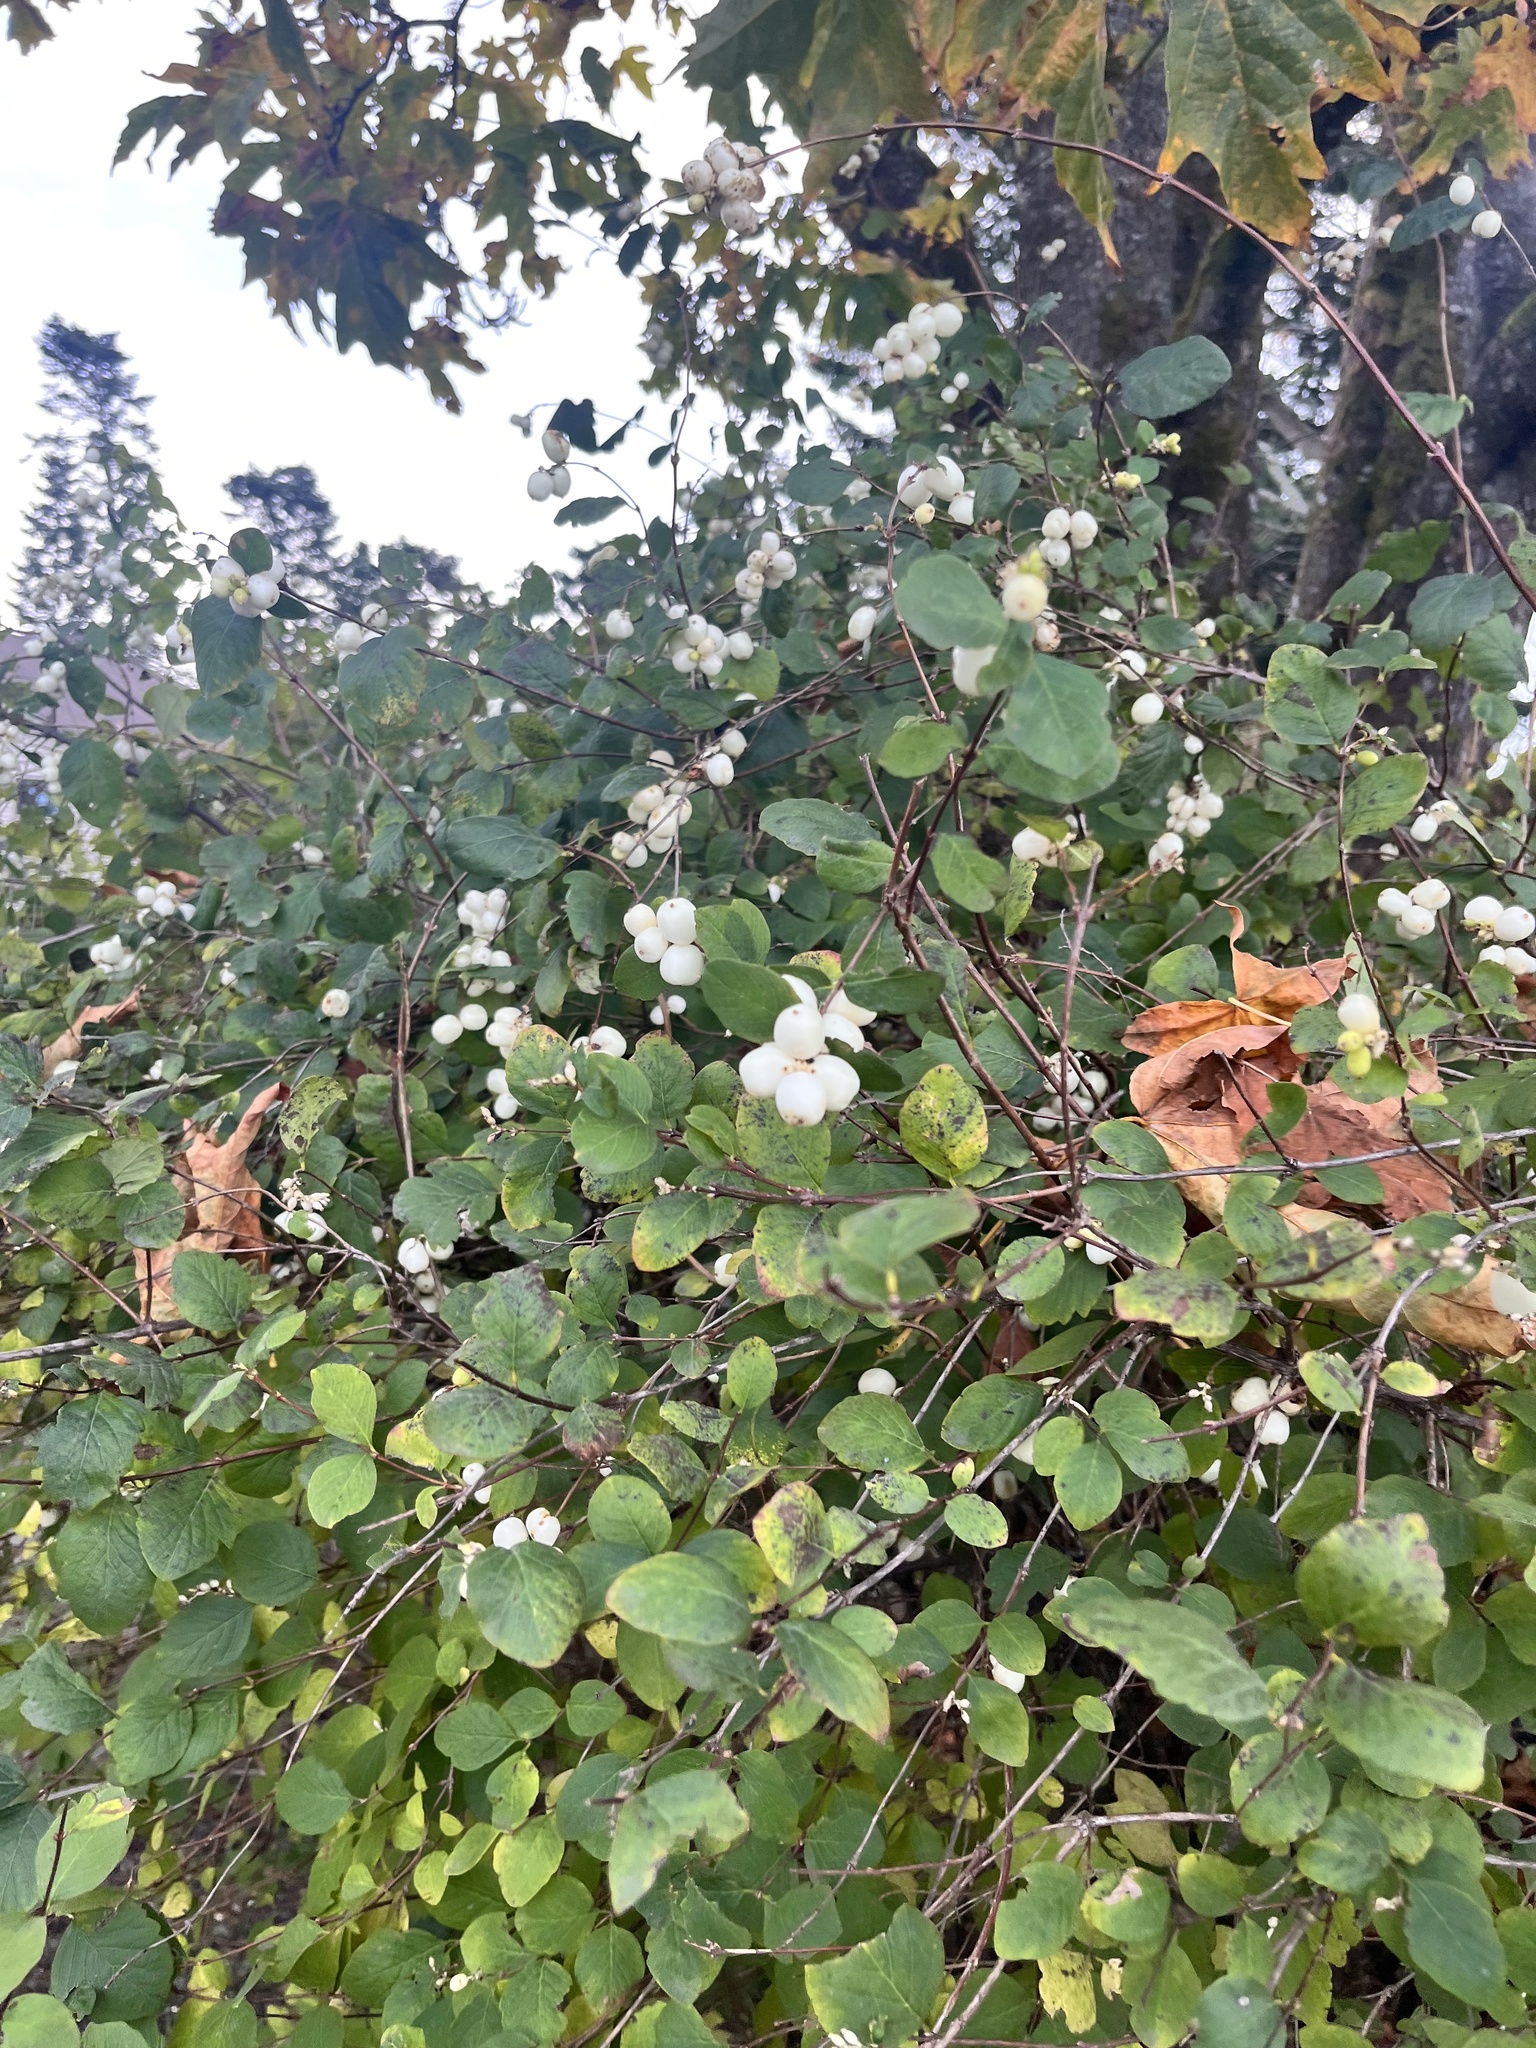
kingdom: Plantae
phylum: Tracheophyta
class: Magnoliopsida
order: Dipsacales
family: Caprifoliaceae
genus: Symphoricarpos
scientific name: Symphoricarpos albus
